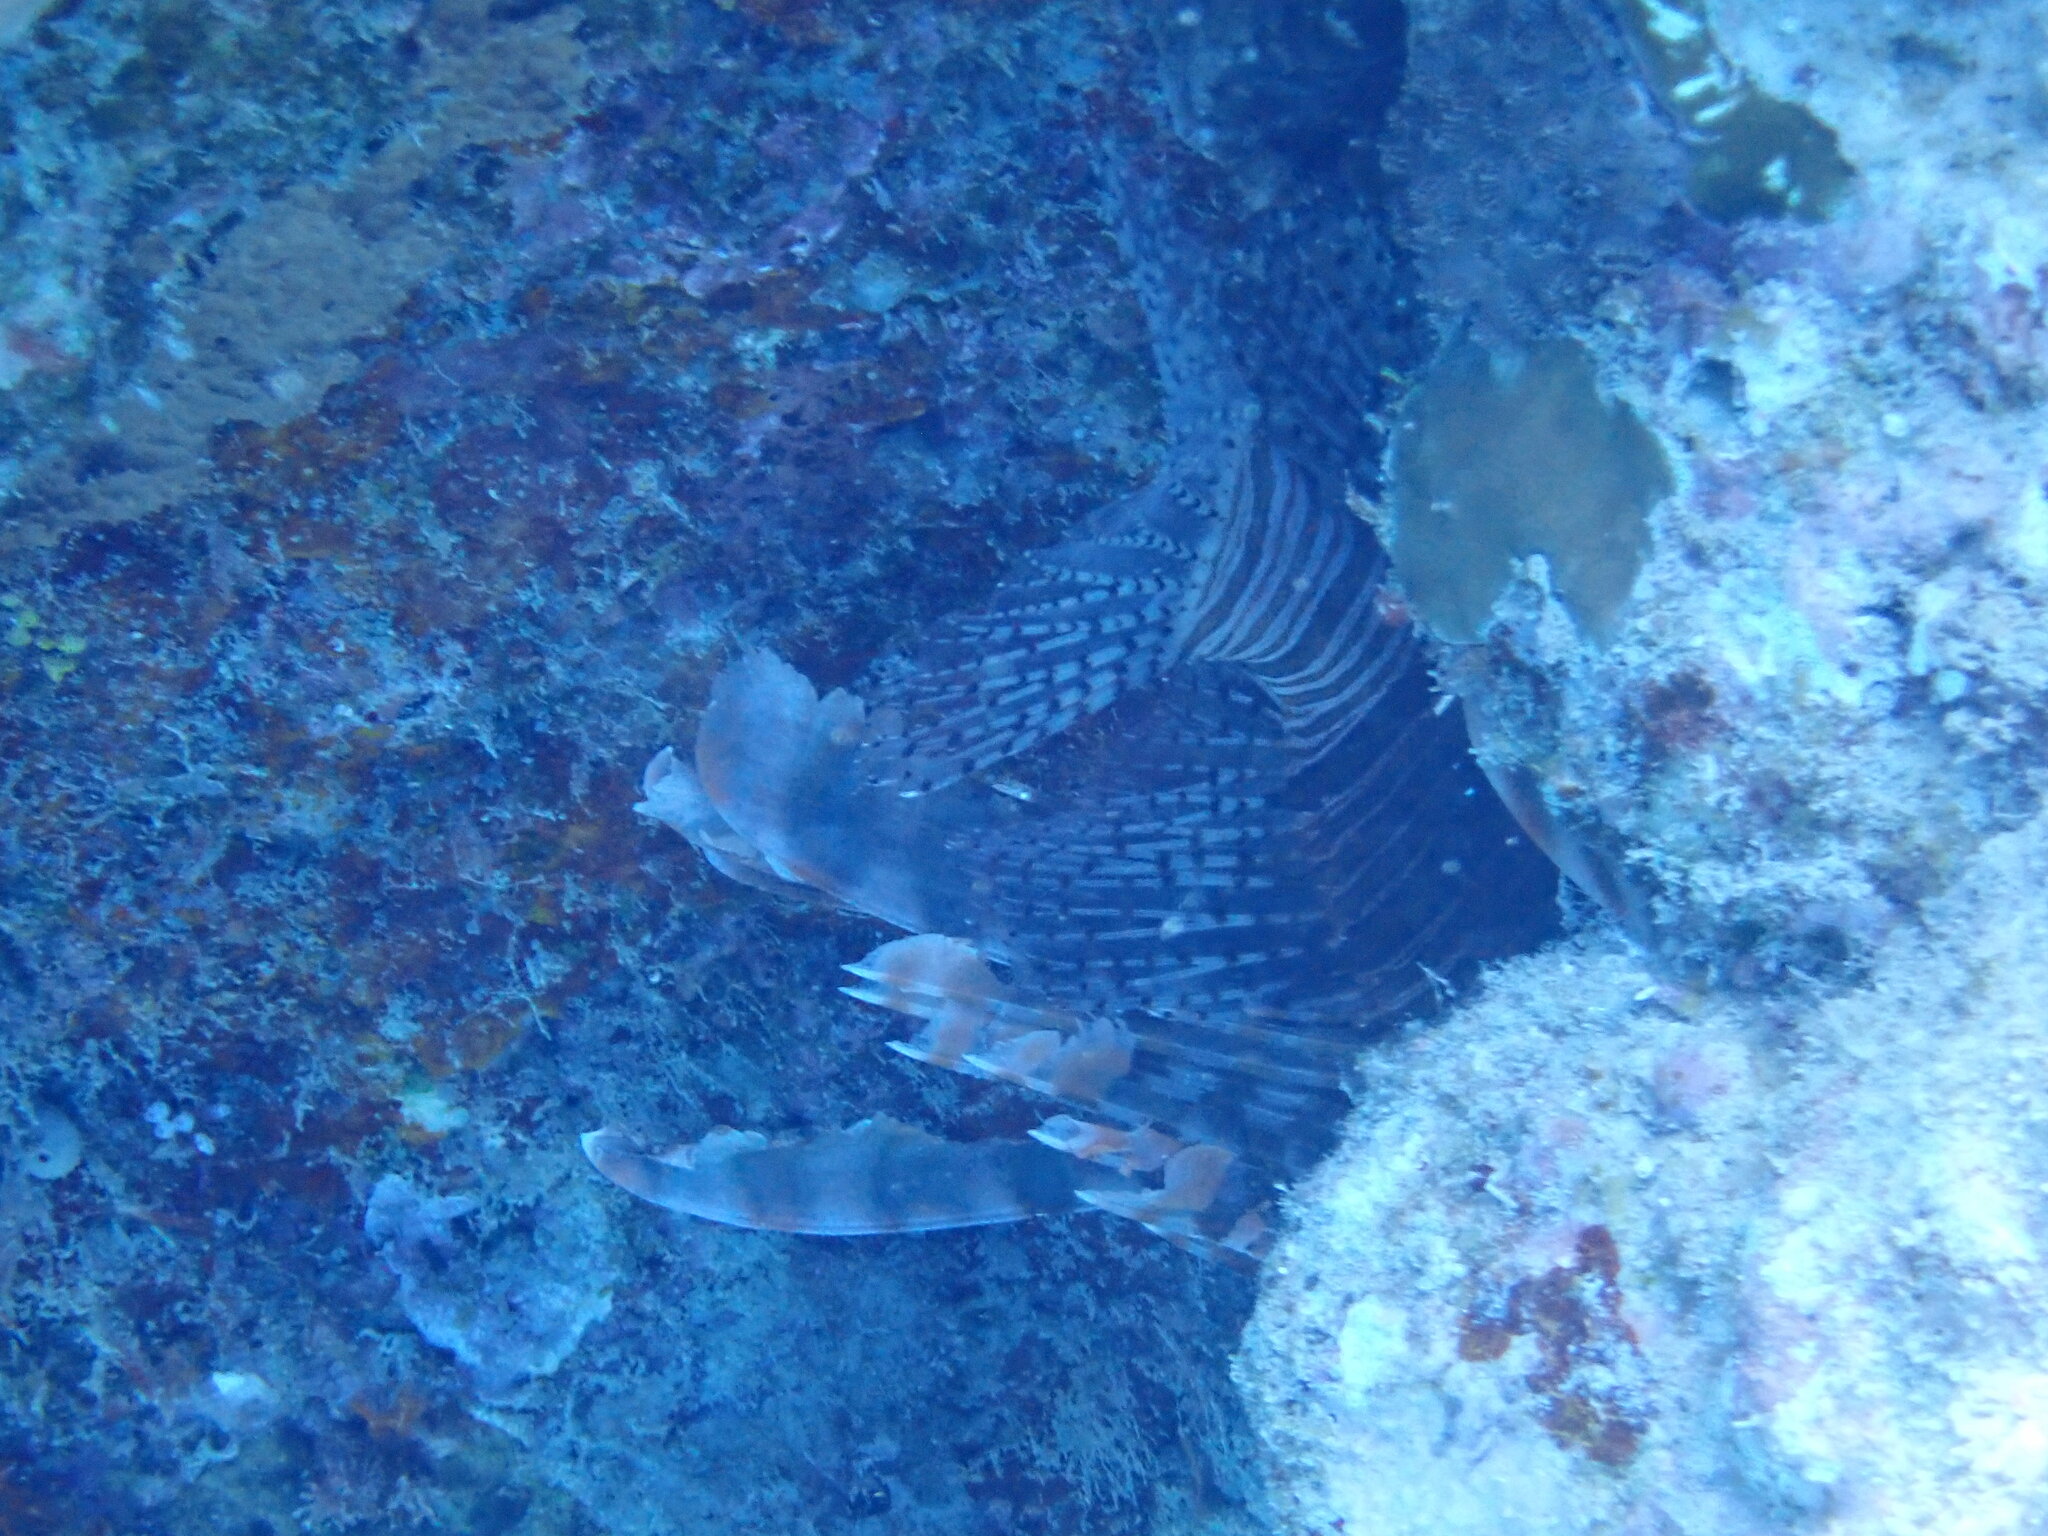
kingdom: Animalia
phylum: Chordata
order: Scorpaeniformes
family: Scorpaenidae
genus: Pterois
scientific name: Pterois volitans
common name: Lionfish
